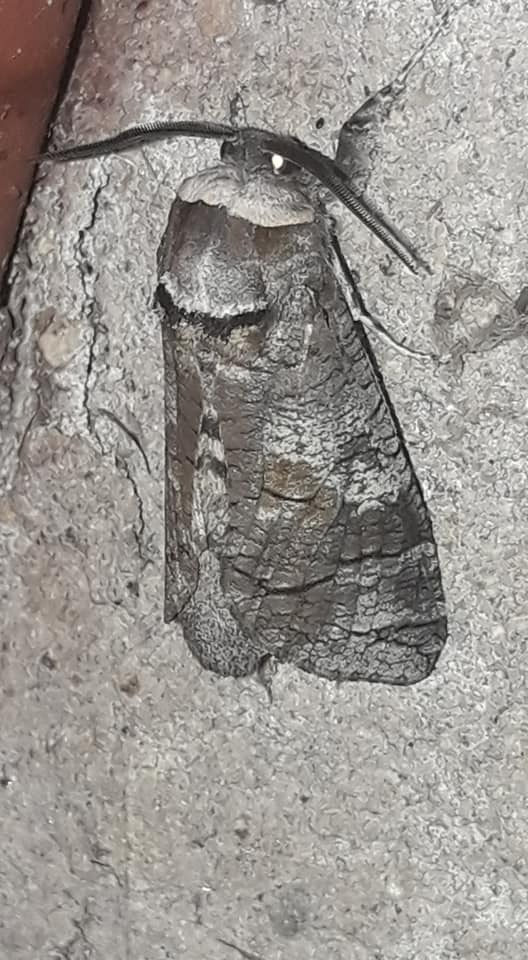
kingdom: Animalia
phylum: Arthropoda
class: Insecta
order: Lepidoptera
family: Cossidae
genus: Cossus
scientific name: Cossus cossus
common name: Goat moth
